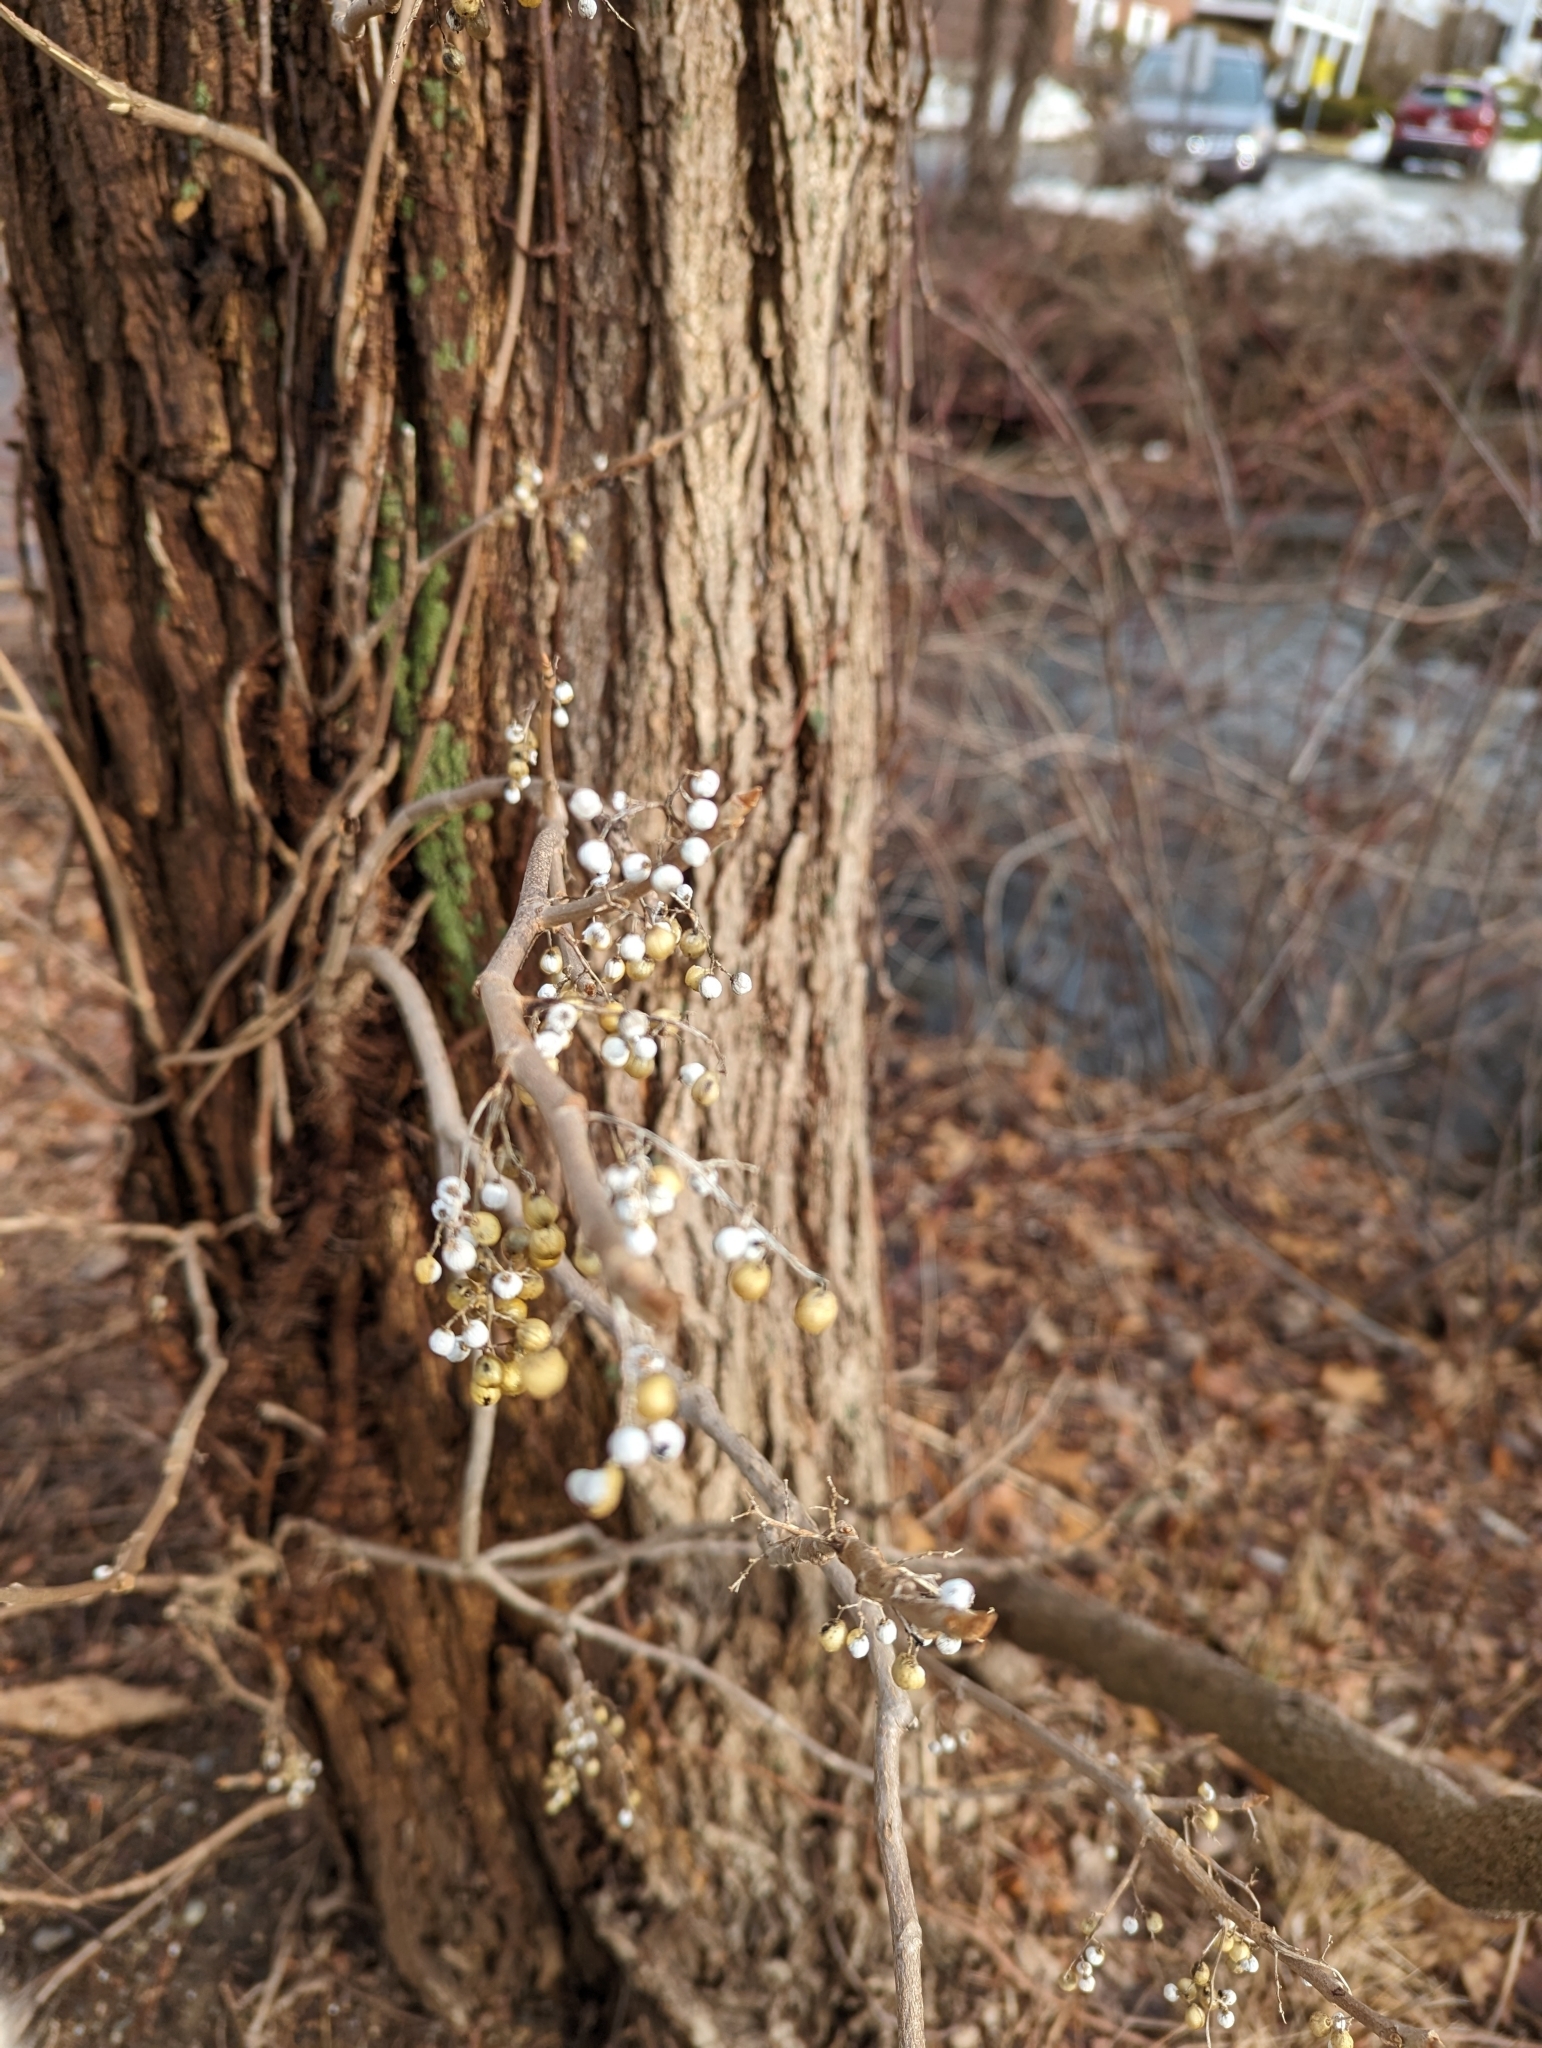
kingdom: Plantae
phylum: Tracheophyta
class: Magnoliopsida
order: Sapindales
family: Anacardiaceae
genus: Toxicodendron
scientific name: Toxicodendron radicans
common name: Poison ivy
